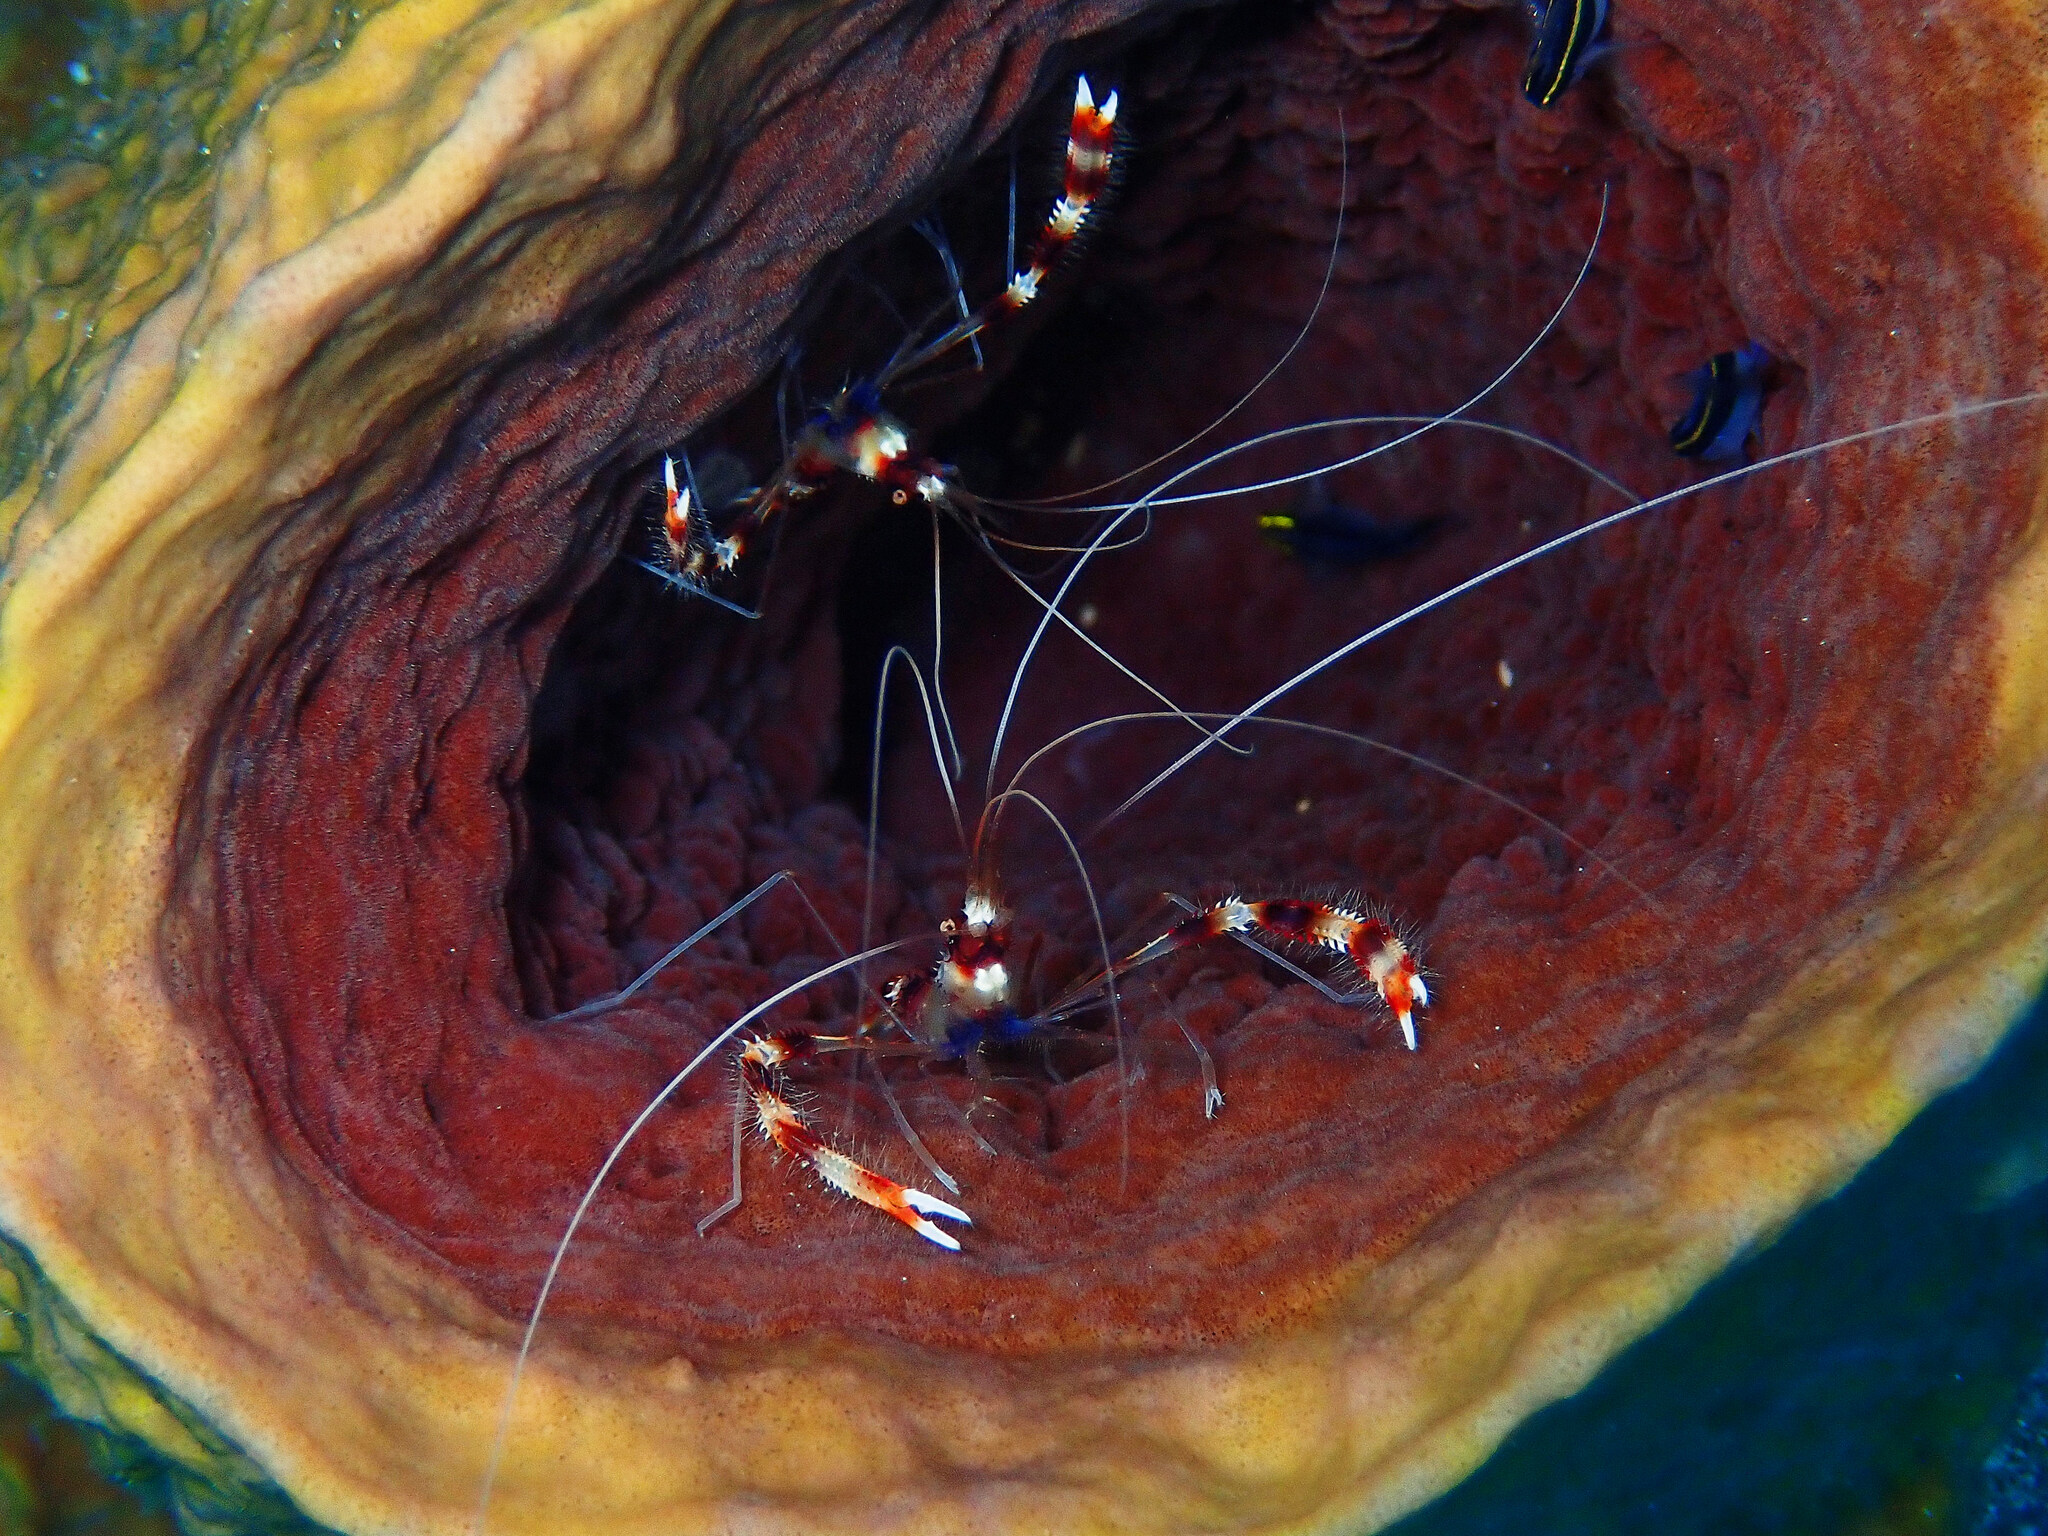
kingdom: Animalia
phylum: Arthropoda
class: Malacostraca
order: Decapoda
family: Stenopodidae
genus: Stenopus
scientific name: Stenopus hispidus
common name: Banded coral shrimp
